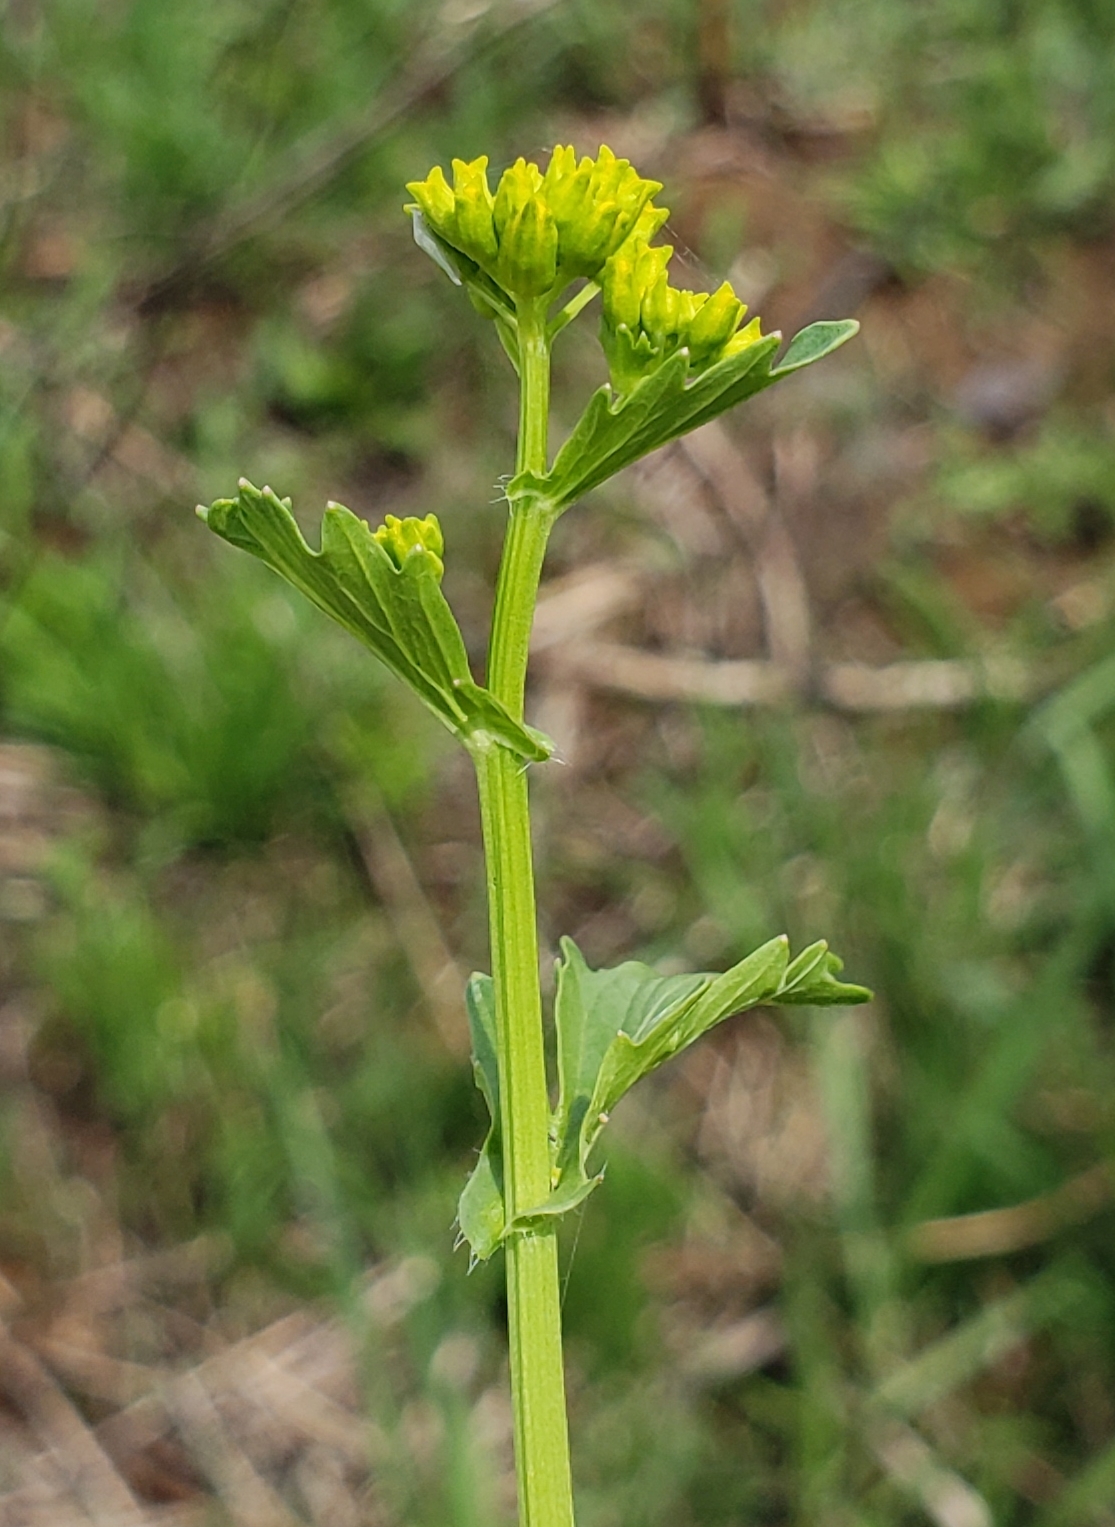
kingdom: Plantae
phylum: Tracheophyta
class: Magnoliopsida
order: Brassicales
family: Brassicaceae
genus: Barbarea
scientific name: Barbarea orthoceras
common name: American wintercress
